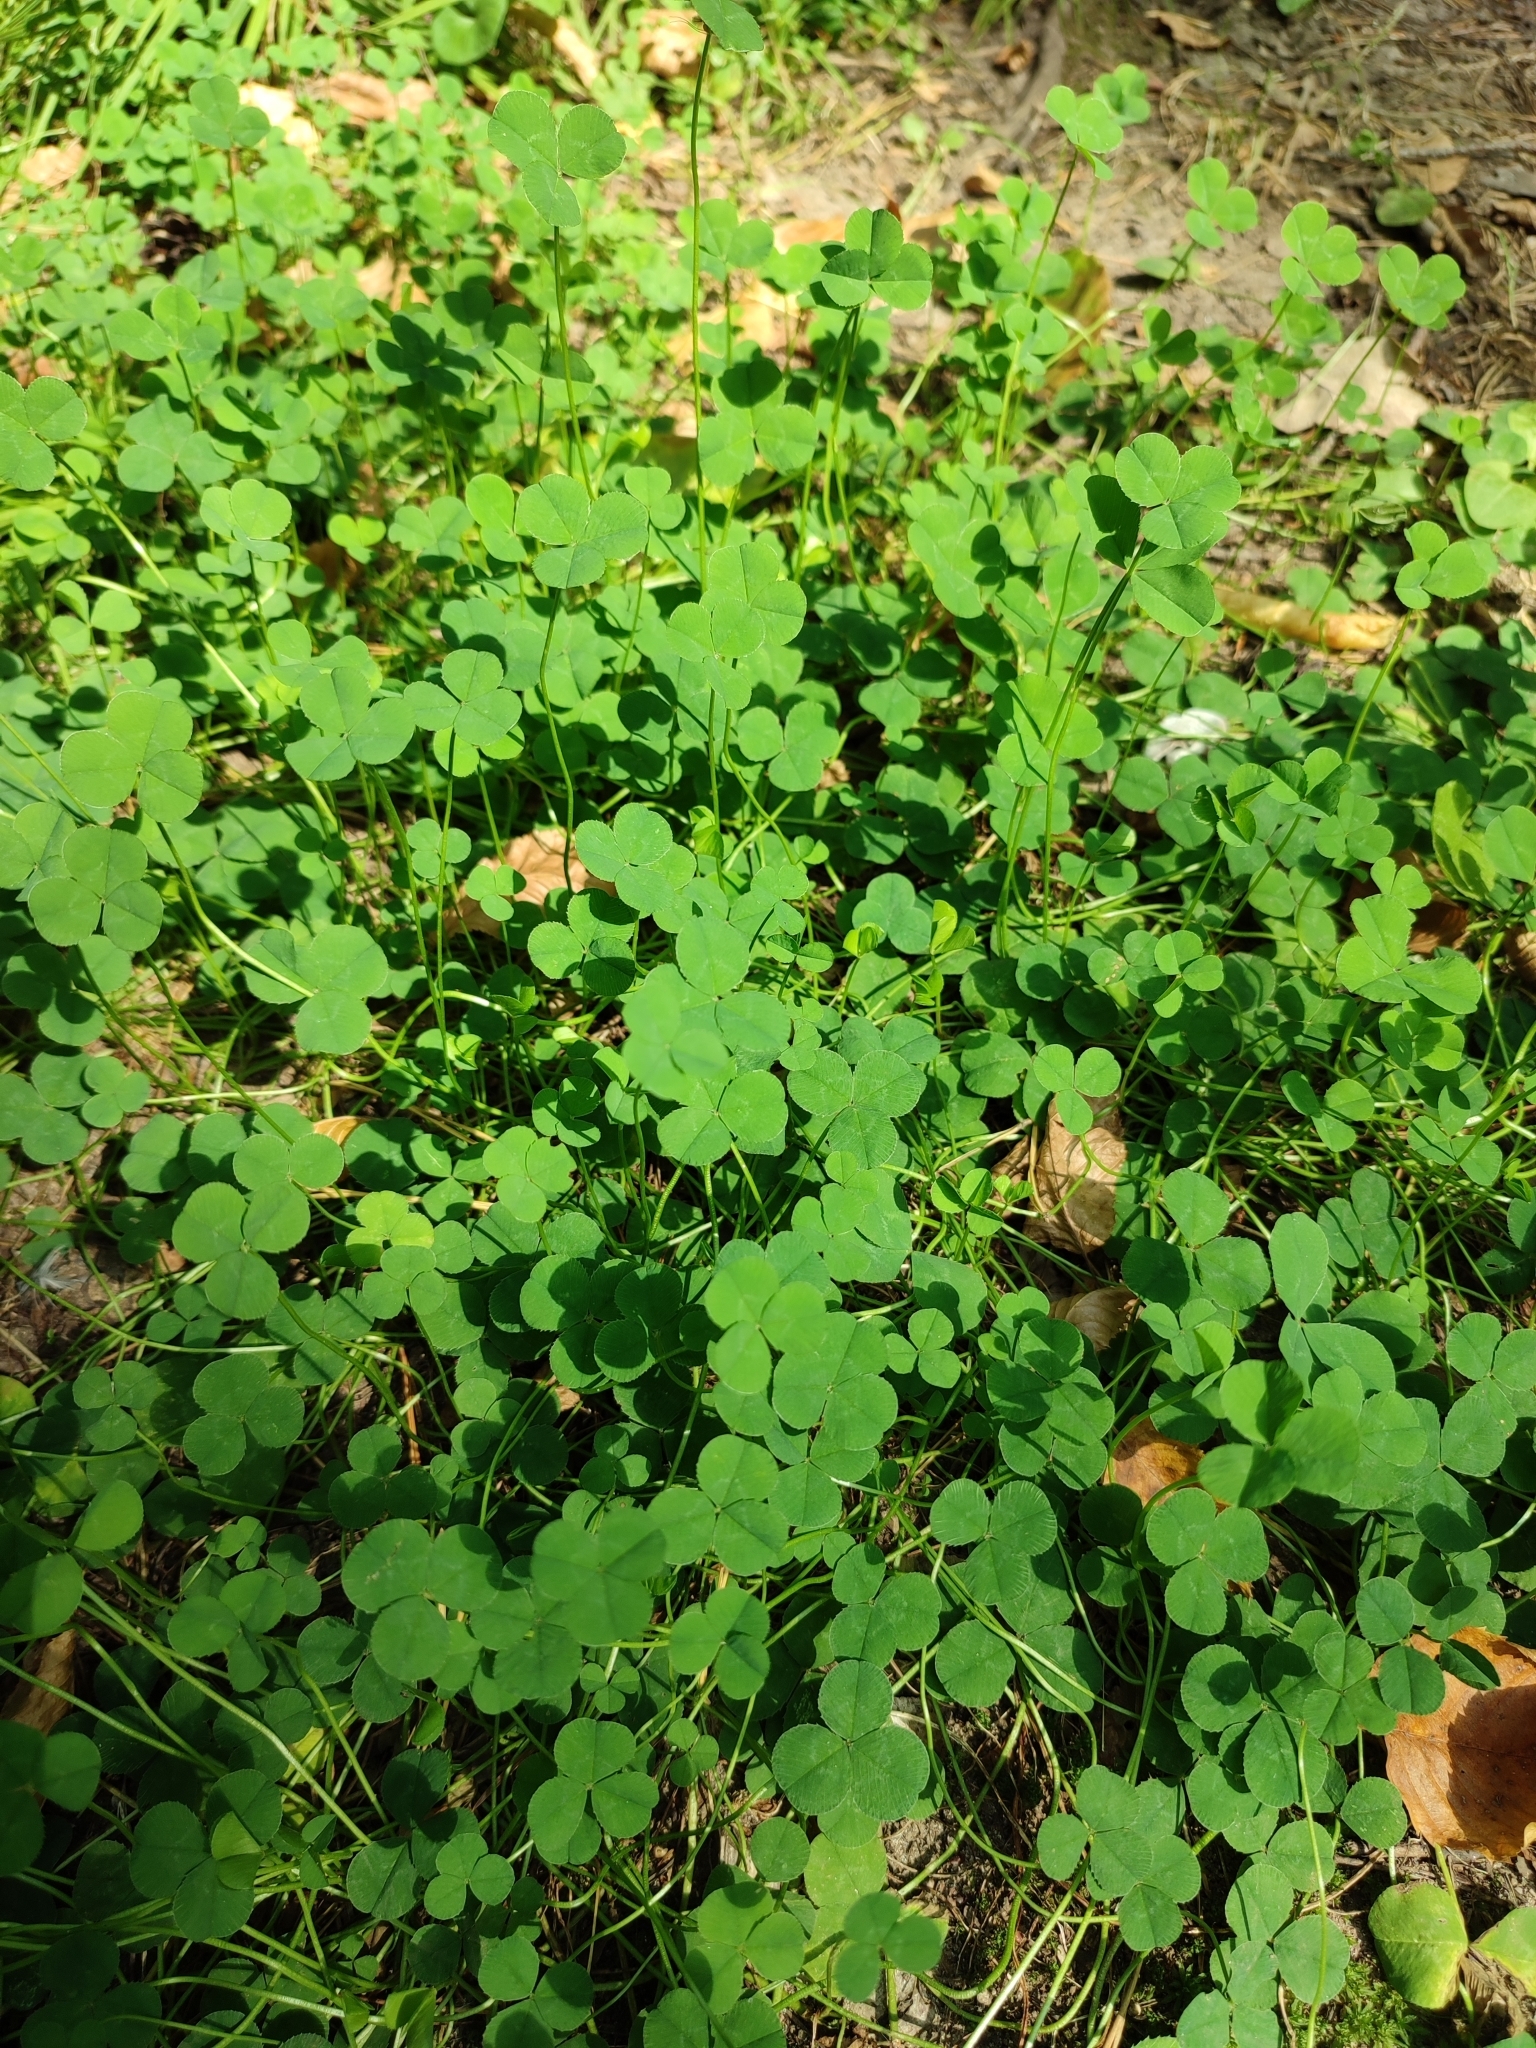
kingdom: Plantae
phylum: Tracheophyta
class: Magnoliopsida
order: Fabales
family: Fabaceae
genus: Trifolium
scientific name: Trifolium repens
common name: White clover
